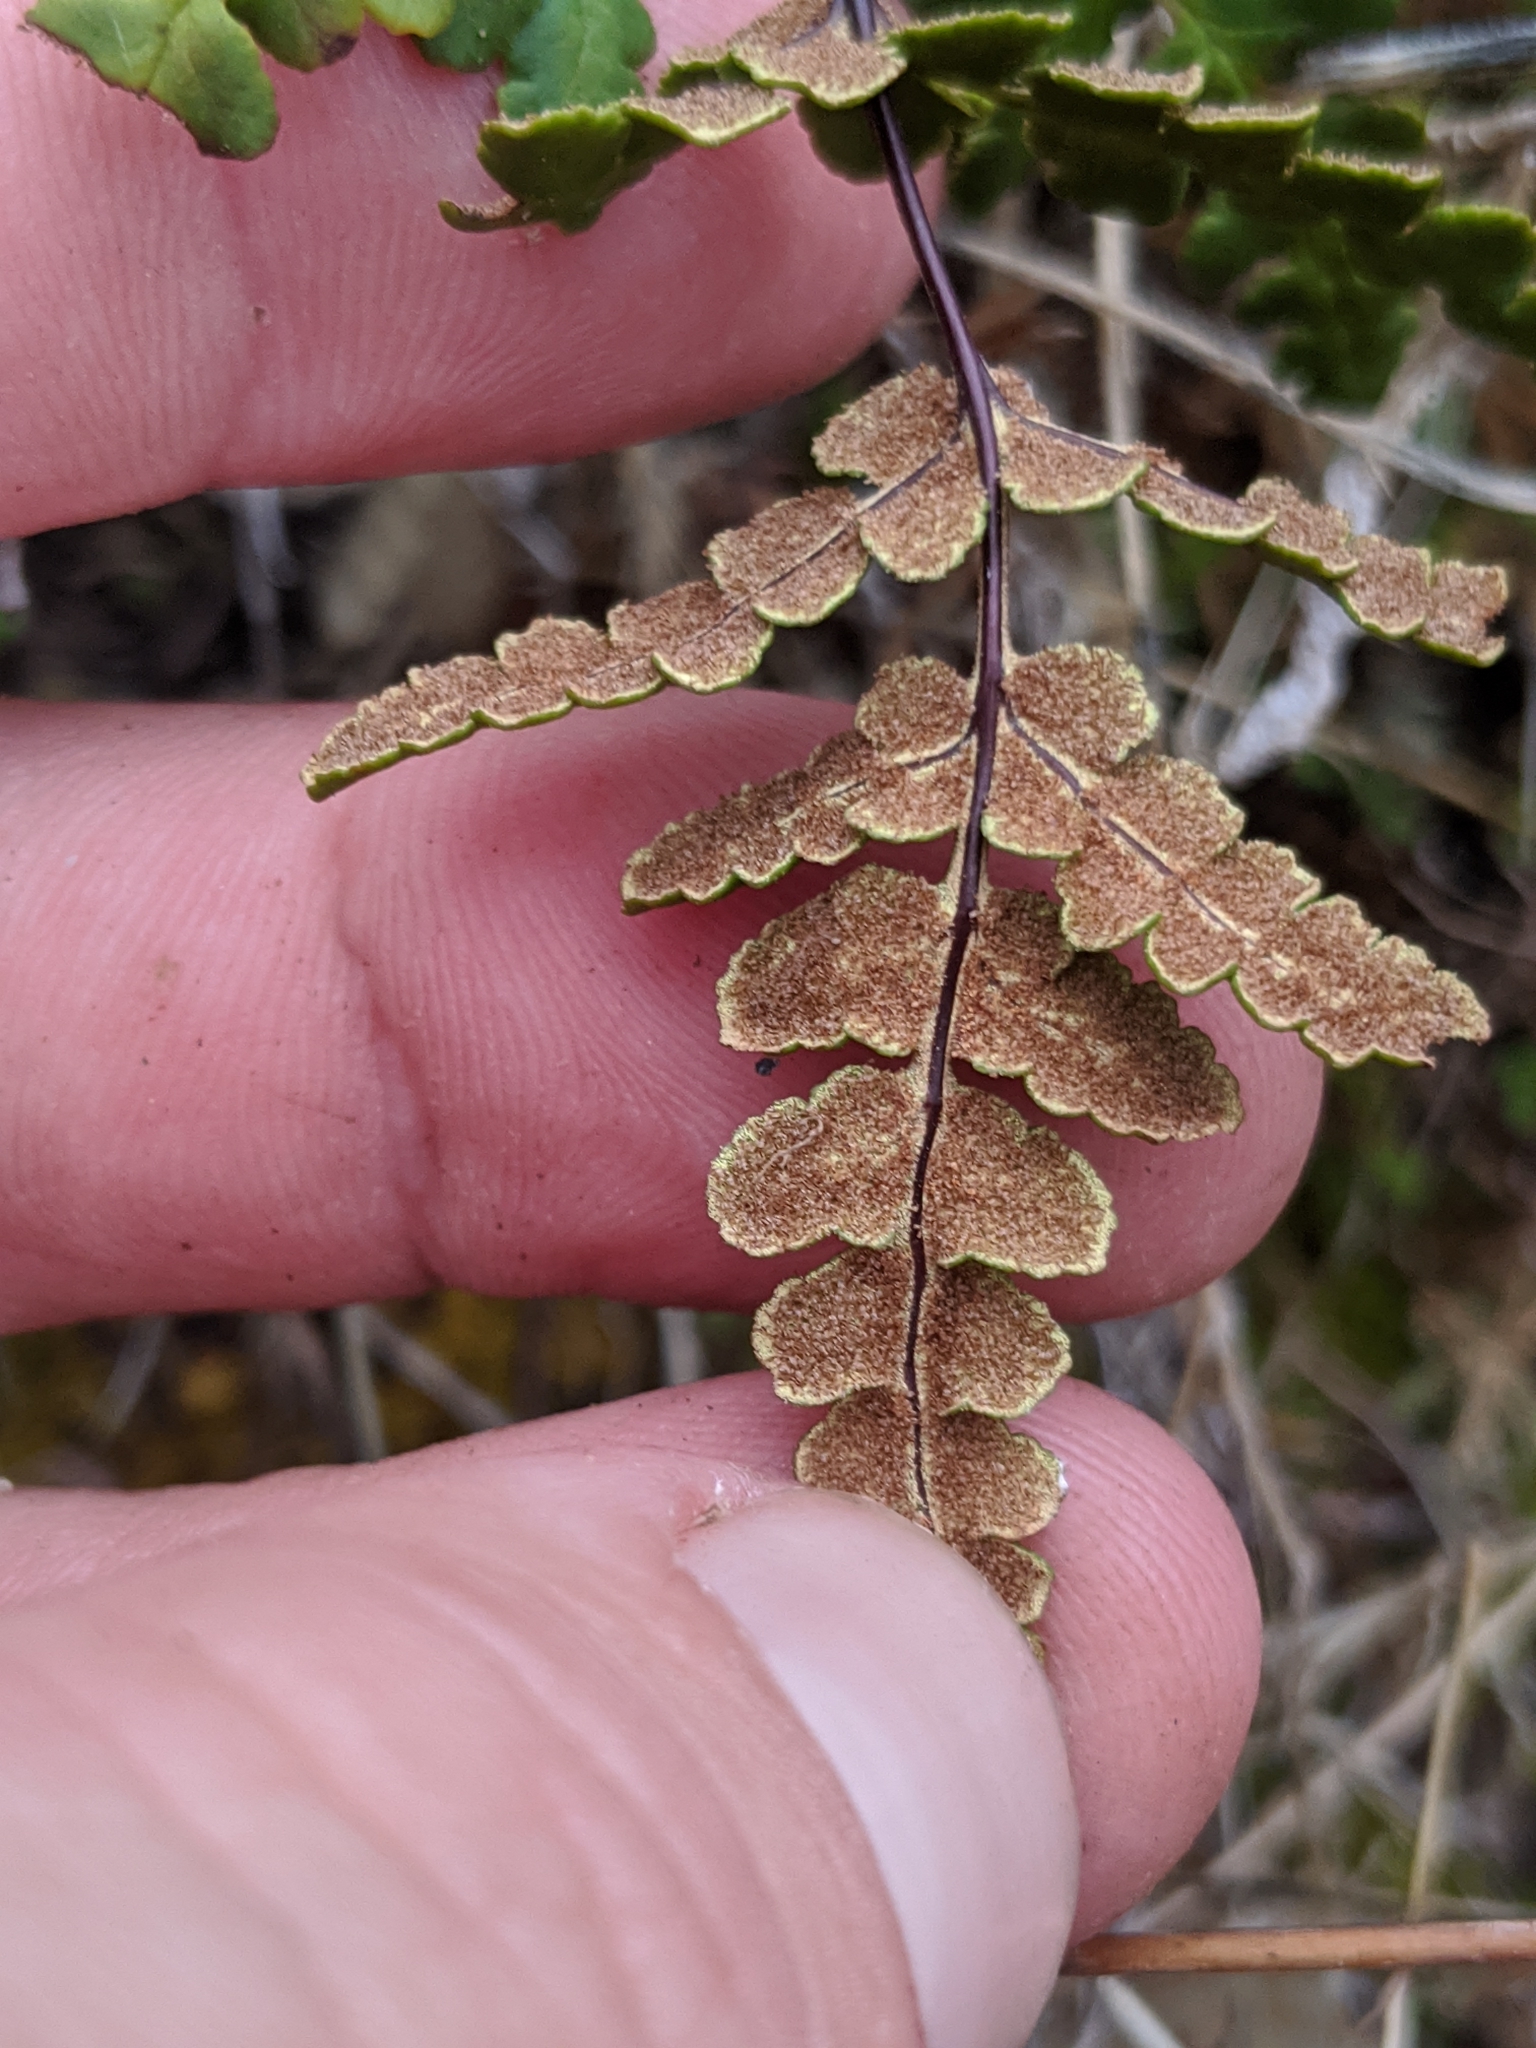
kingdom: Plantae
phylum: Tracheophyta
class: Polypodiopsida
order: Polypodiales
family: Pteridaceae
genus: Pentagramma
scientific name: Pentagramma triangularis
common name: Gold fern
